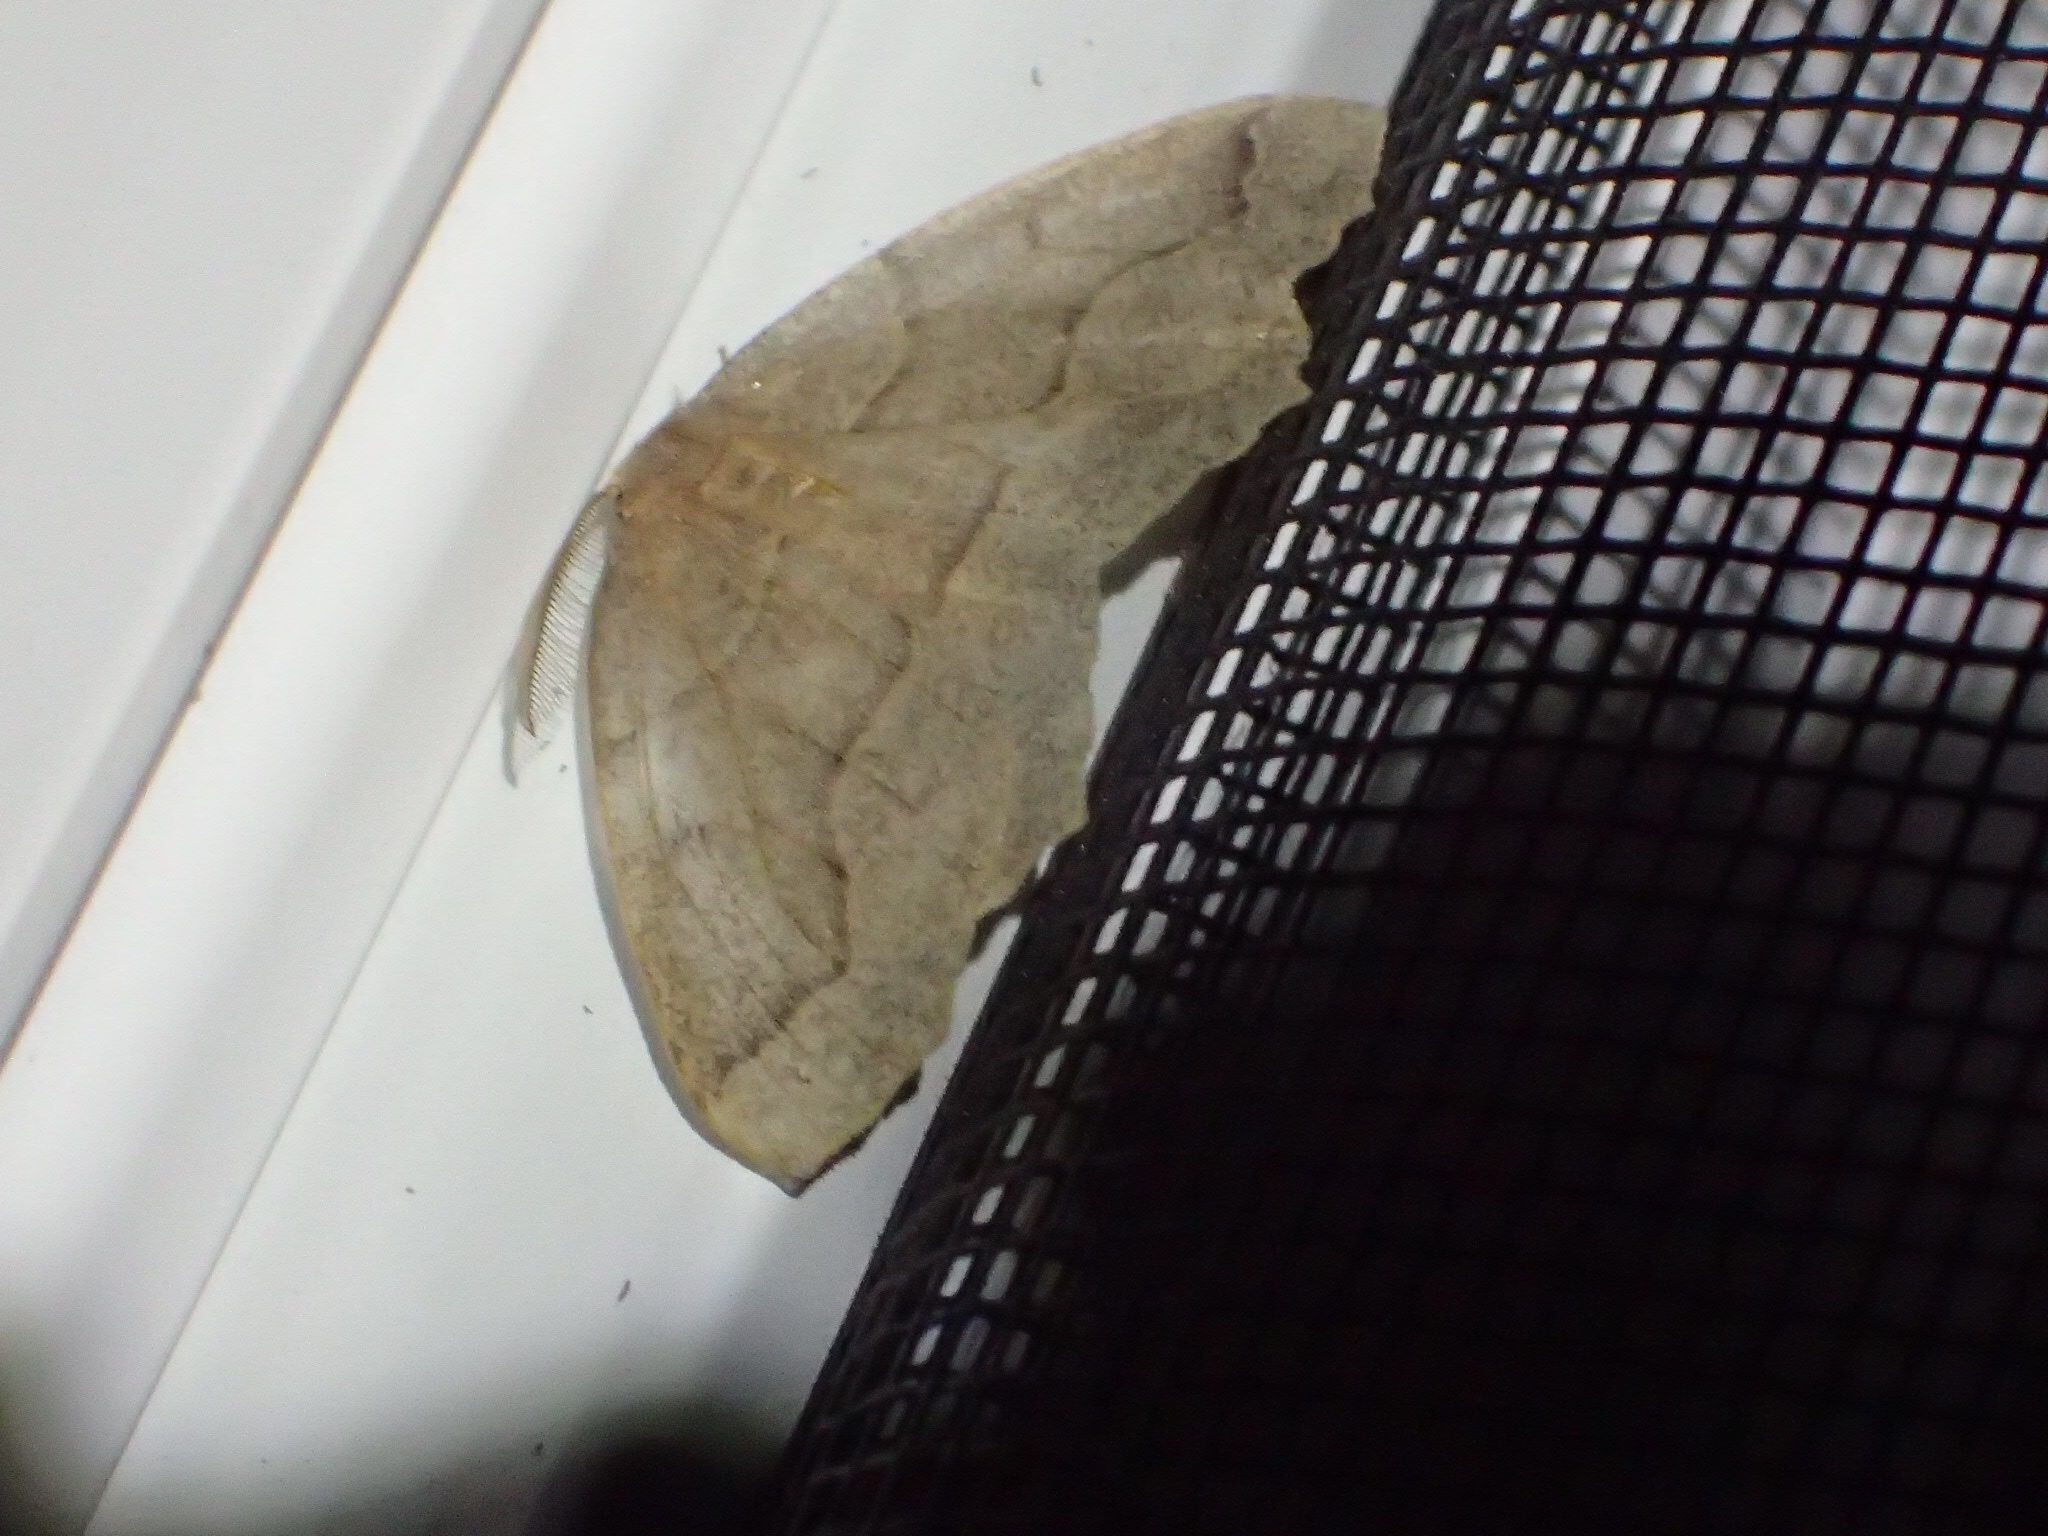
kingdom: Animalia
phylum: Arthropoda
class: Insecta
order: Lepidoptera
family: Geometridae
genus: Lambdina
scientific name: Lambdina fiscellaria
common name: Hemlock looper
